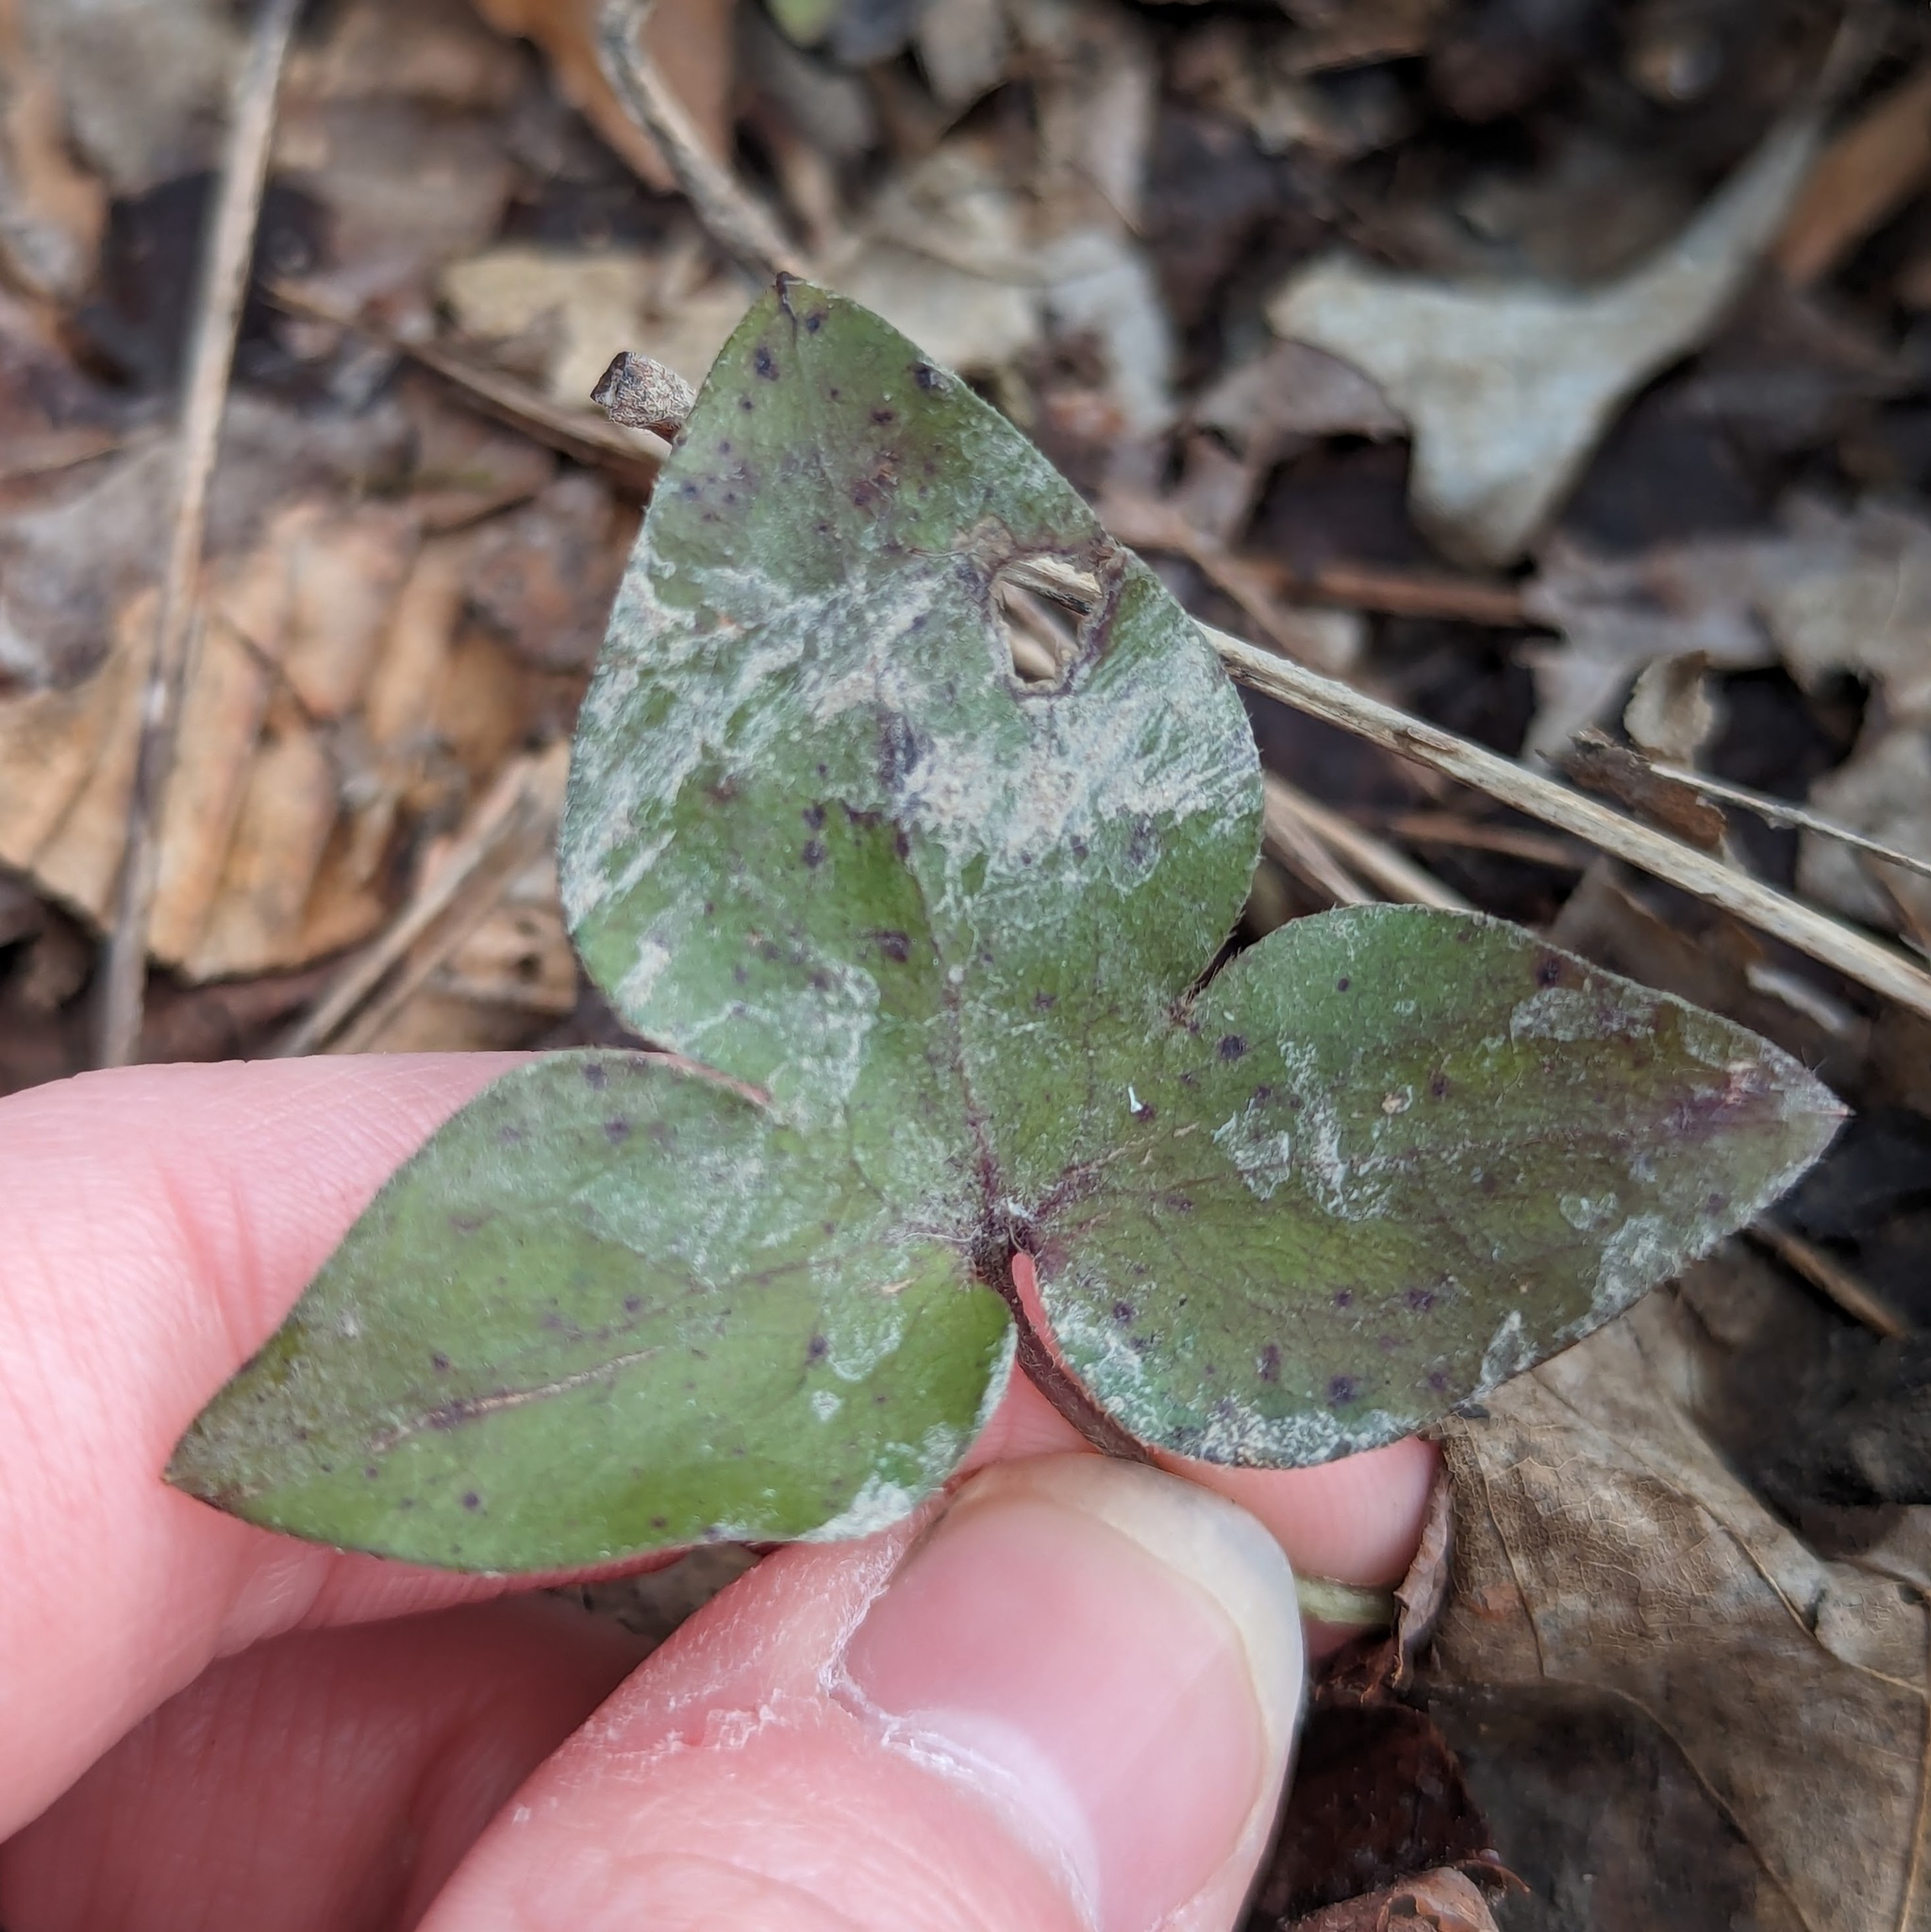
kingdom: Plantae
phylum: Tracheophyta
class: Magnoliopsida
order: Ranunculales
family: Ranunculaceae
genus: Hepatica
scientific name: Hepatica acutiloba
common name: Sharp-lobed hepatica
